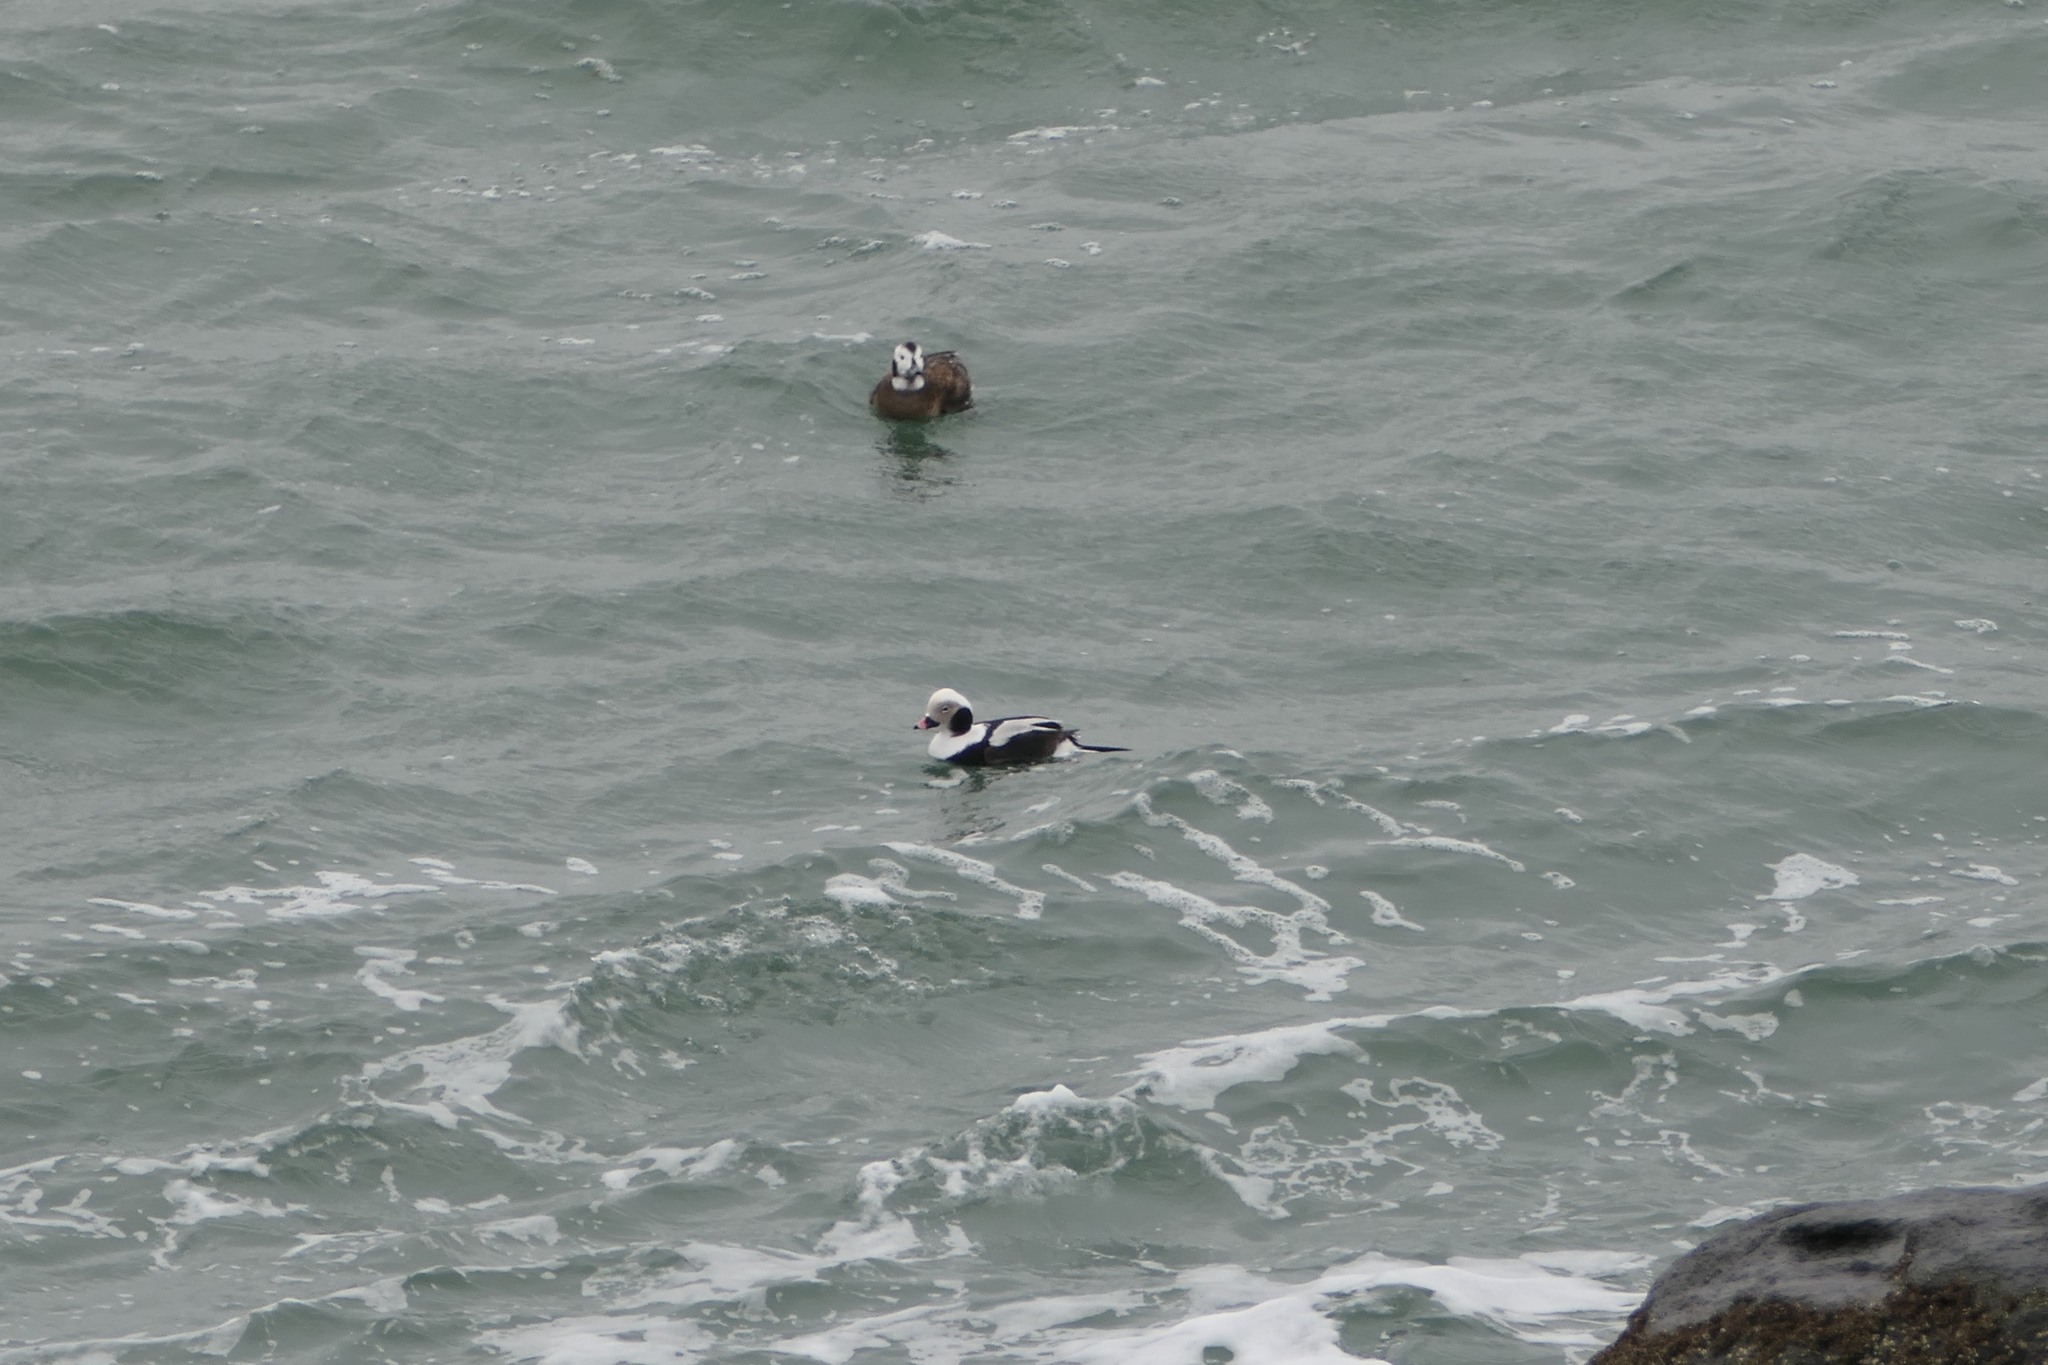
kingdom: Animalia
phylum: Chordata
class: Aves
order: Anseriformes
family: Anatidae
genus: Clangula
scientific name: Clangula hyemalis
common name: Long-tailed duck
